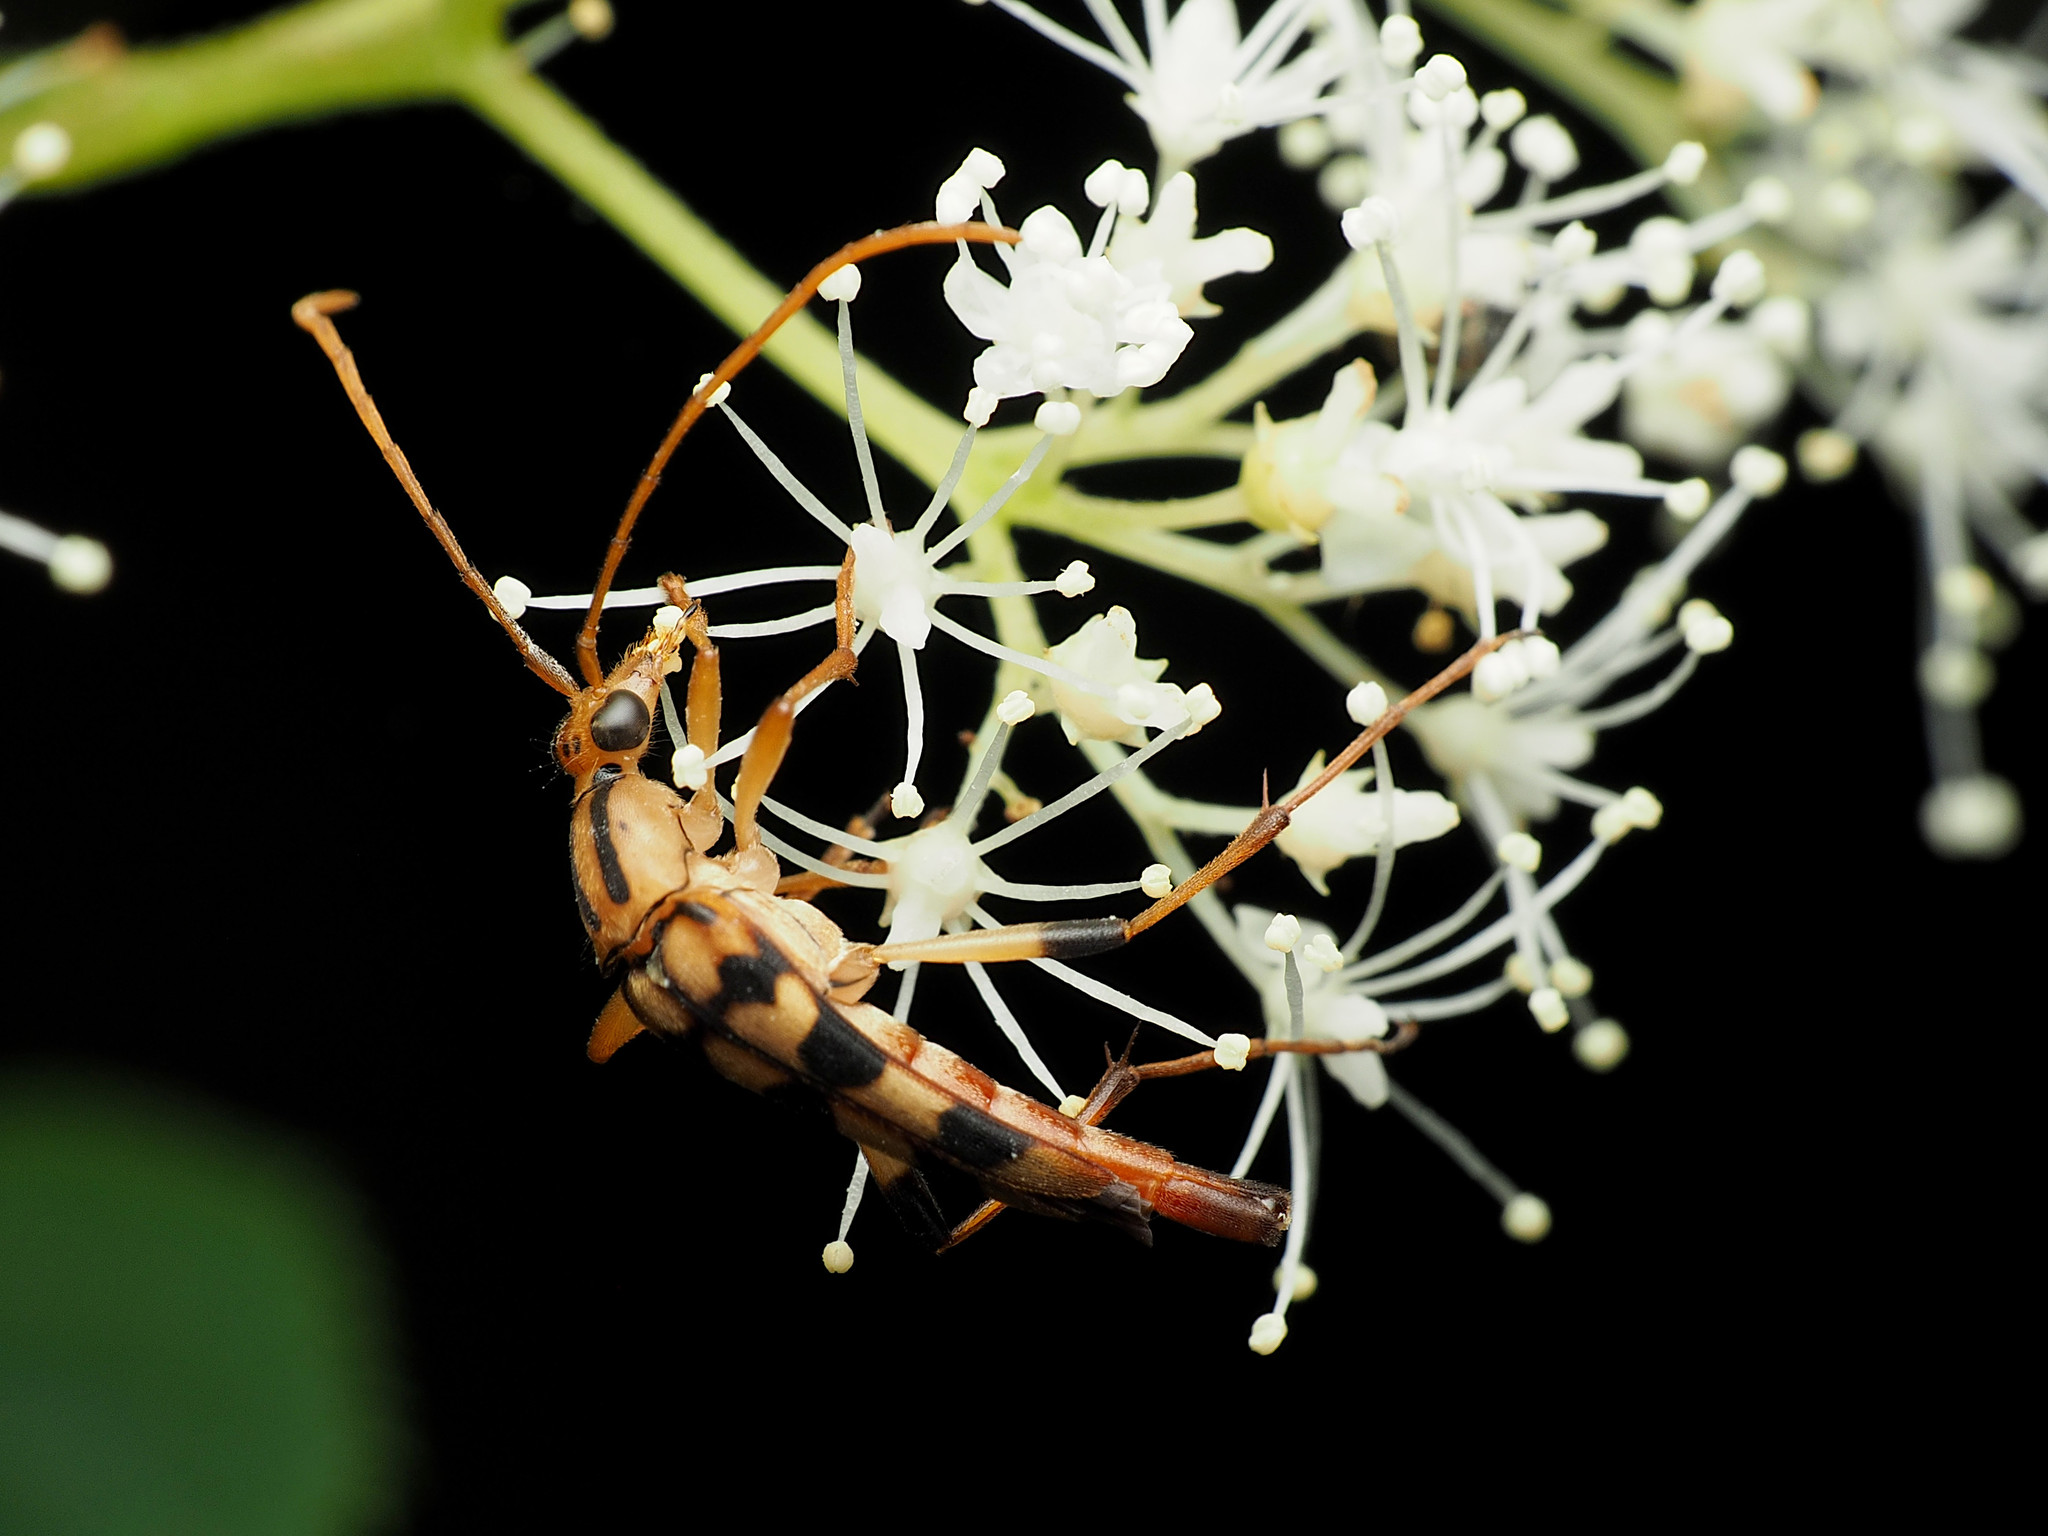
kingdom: Animalia
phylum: Arthropoda
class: Insecta
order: Coleoptera
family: Cerambycidae
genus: Strangalia
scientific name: Strangalia luteicornis
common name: Yellow-horned flower longhorn beetle
